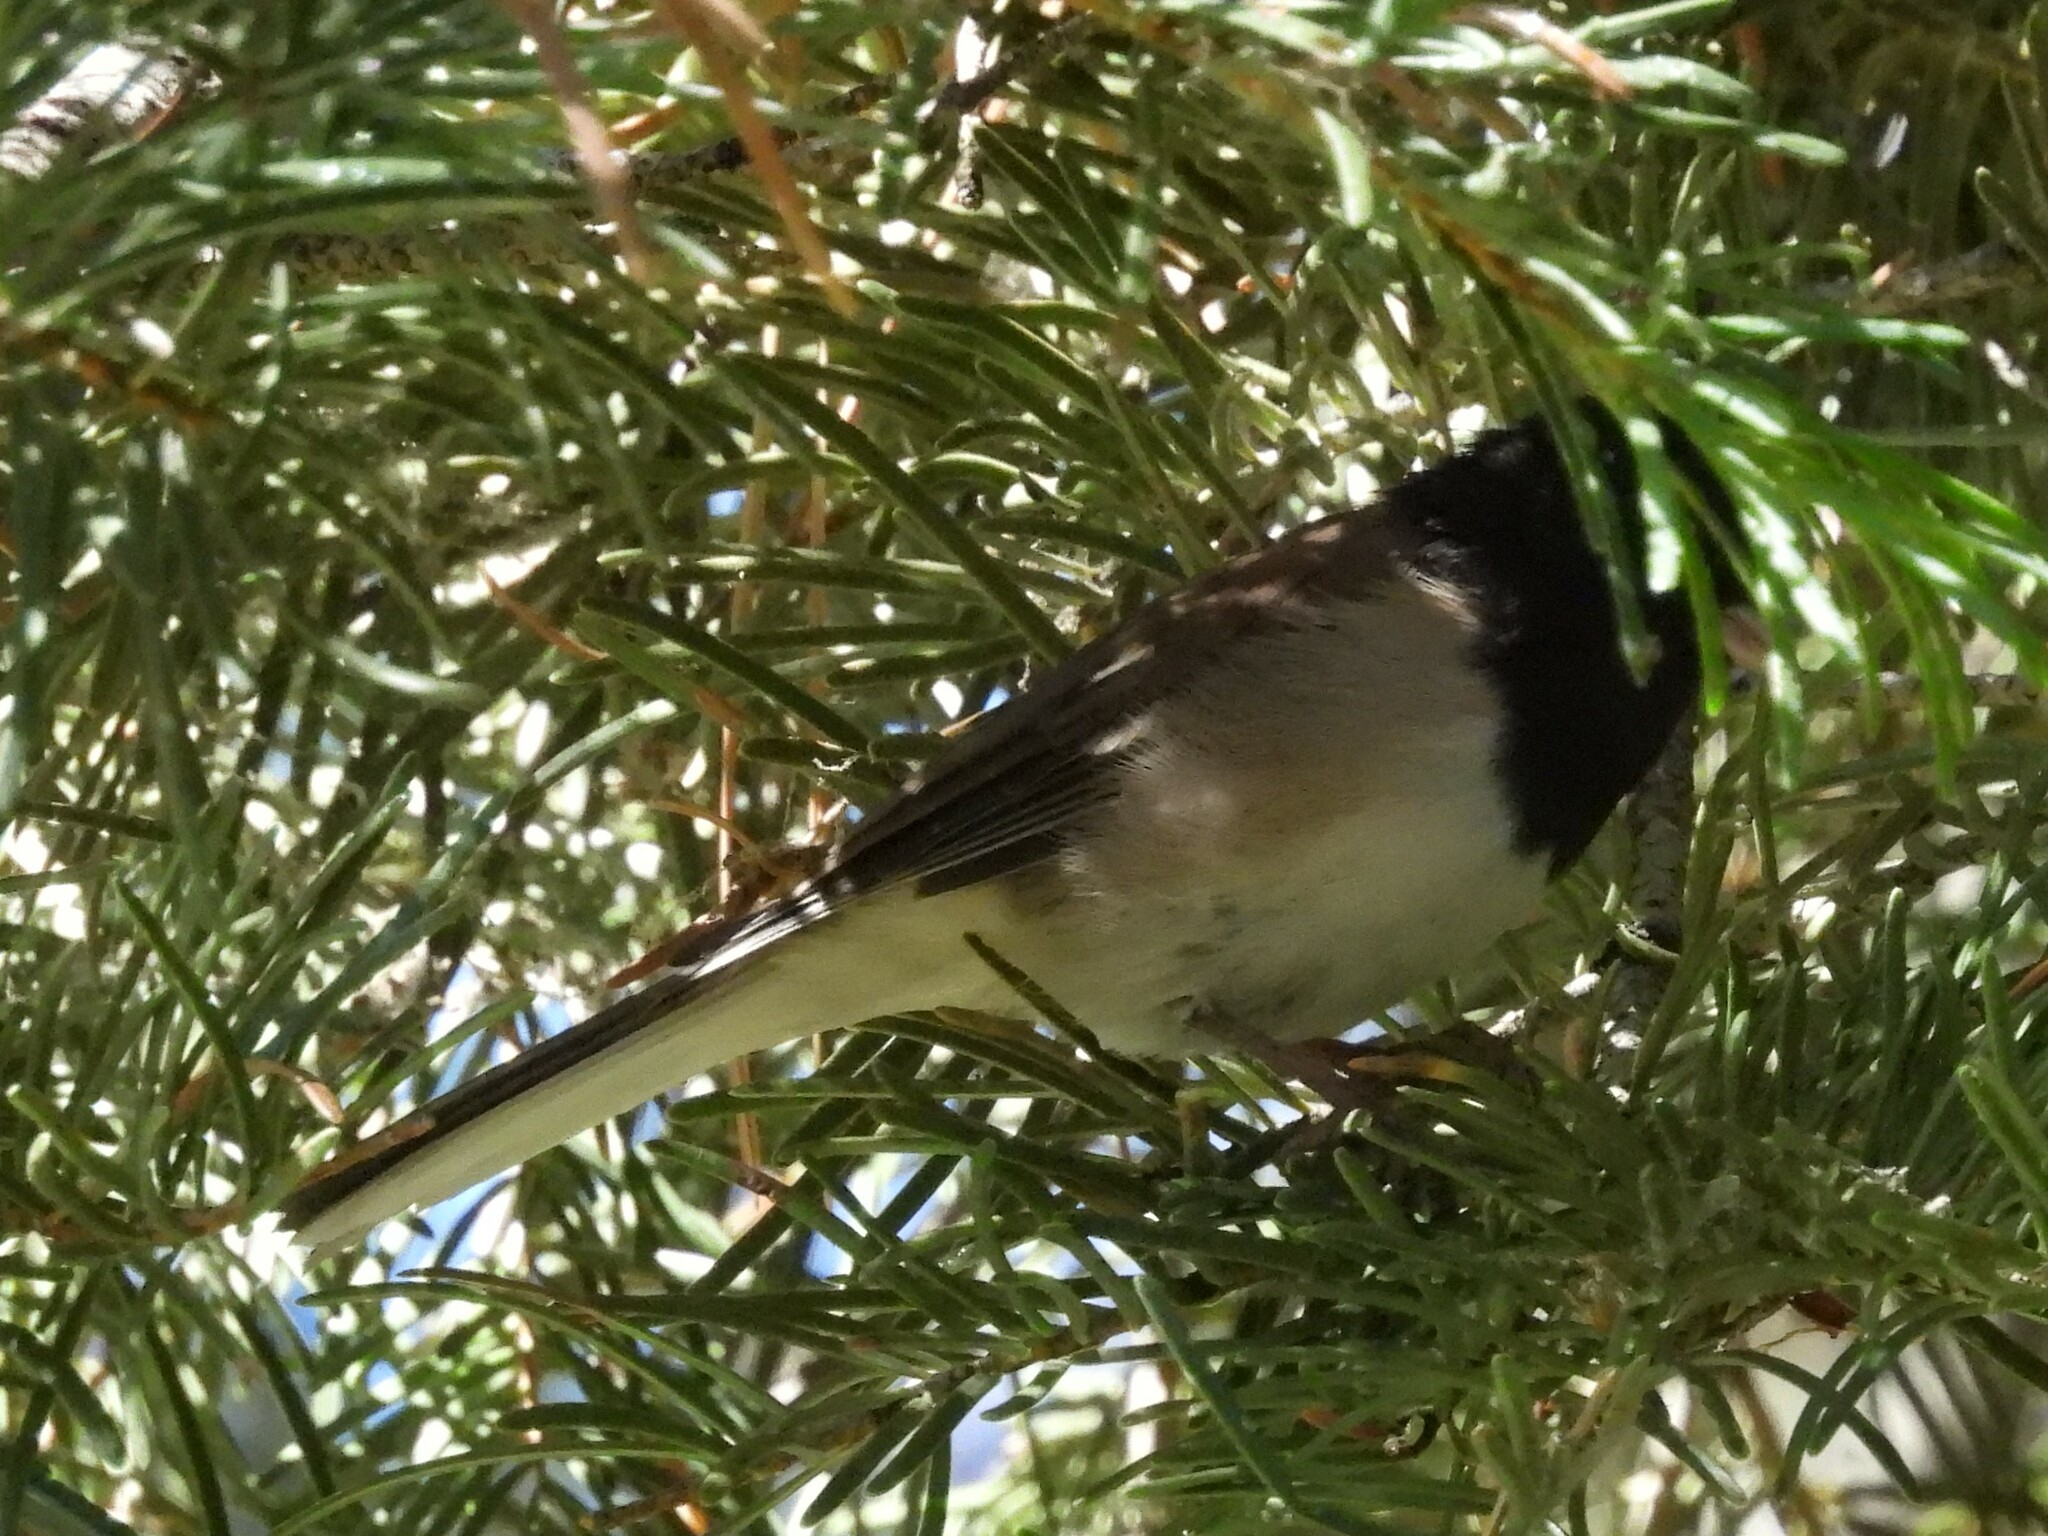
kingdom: Animalia
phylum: Chordata
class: Aves
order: Passeriformes
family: Passerellidae
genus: Junco
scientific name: Junco hyemalis
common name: Dark-eyed junco
